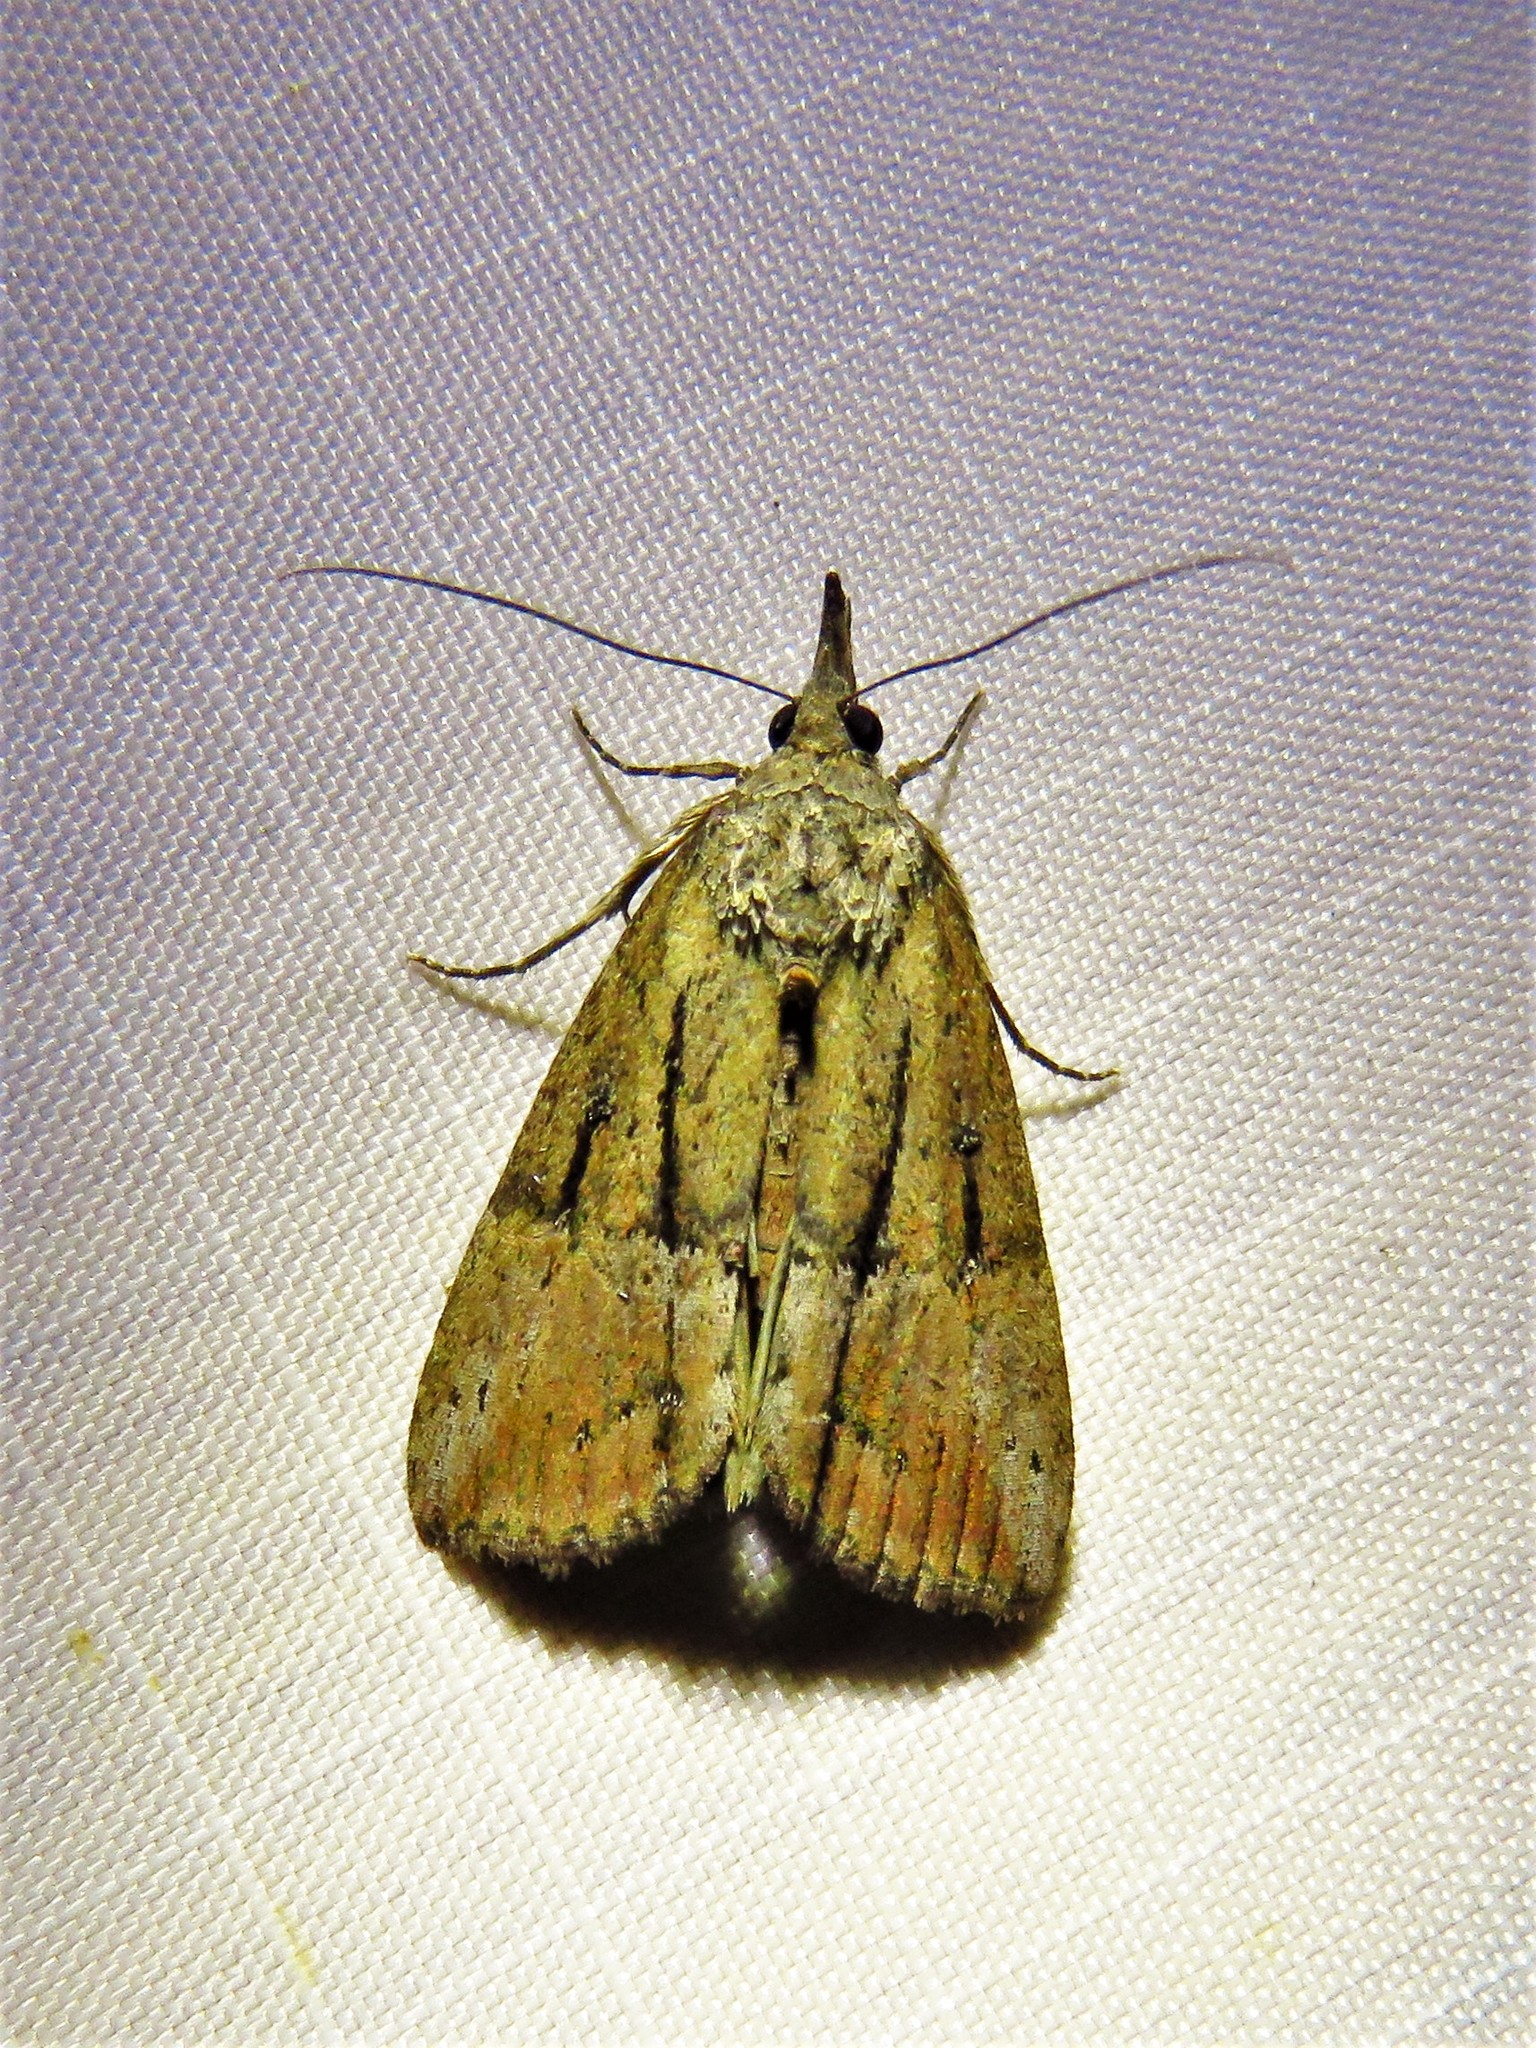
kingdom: Animalia
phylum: Arthropoda
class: Insecta
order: Lepidoptera
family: Erebidae
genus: Hypena
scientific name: Hypena scabra
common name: Green cloverworm
